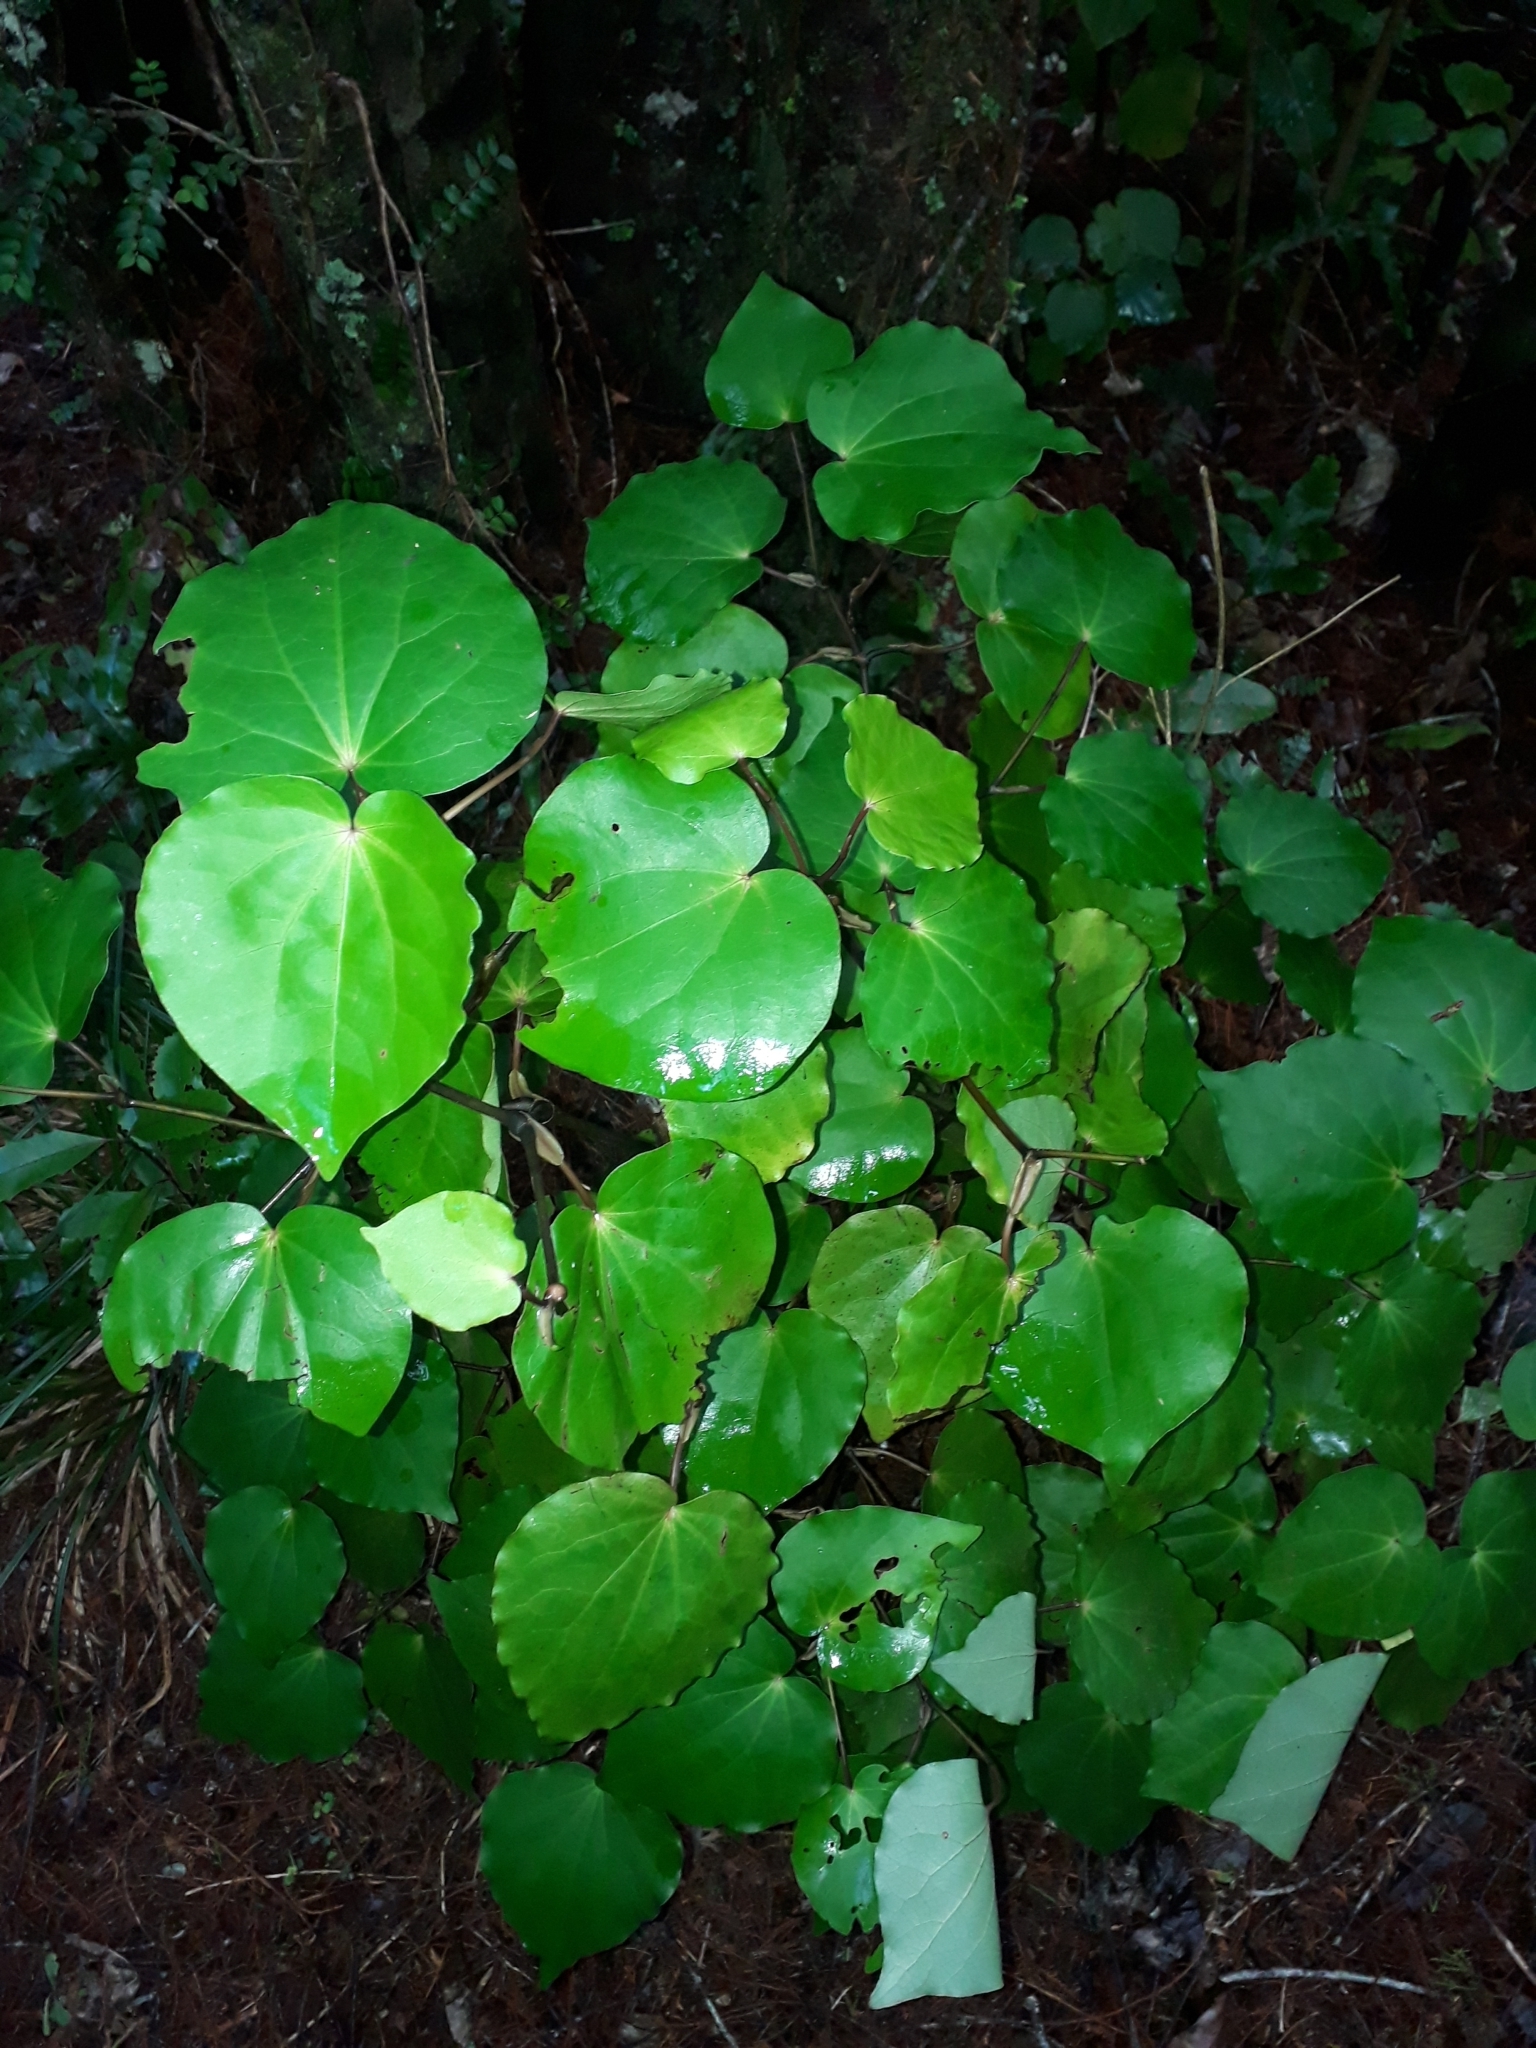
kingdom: Plantae
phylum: Tracheophyta
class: Magnoliopsida
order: Piperales
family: Piperaceae
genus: Macropiper
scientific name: Macropiper excelsum
